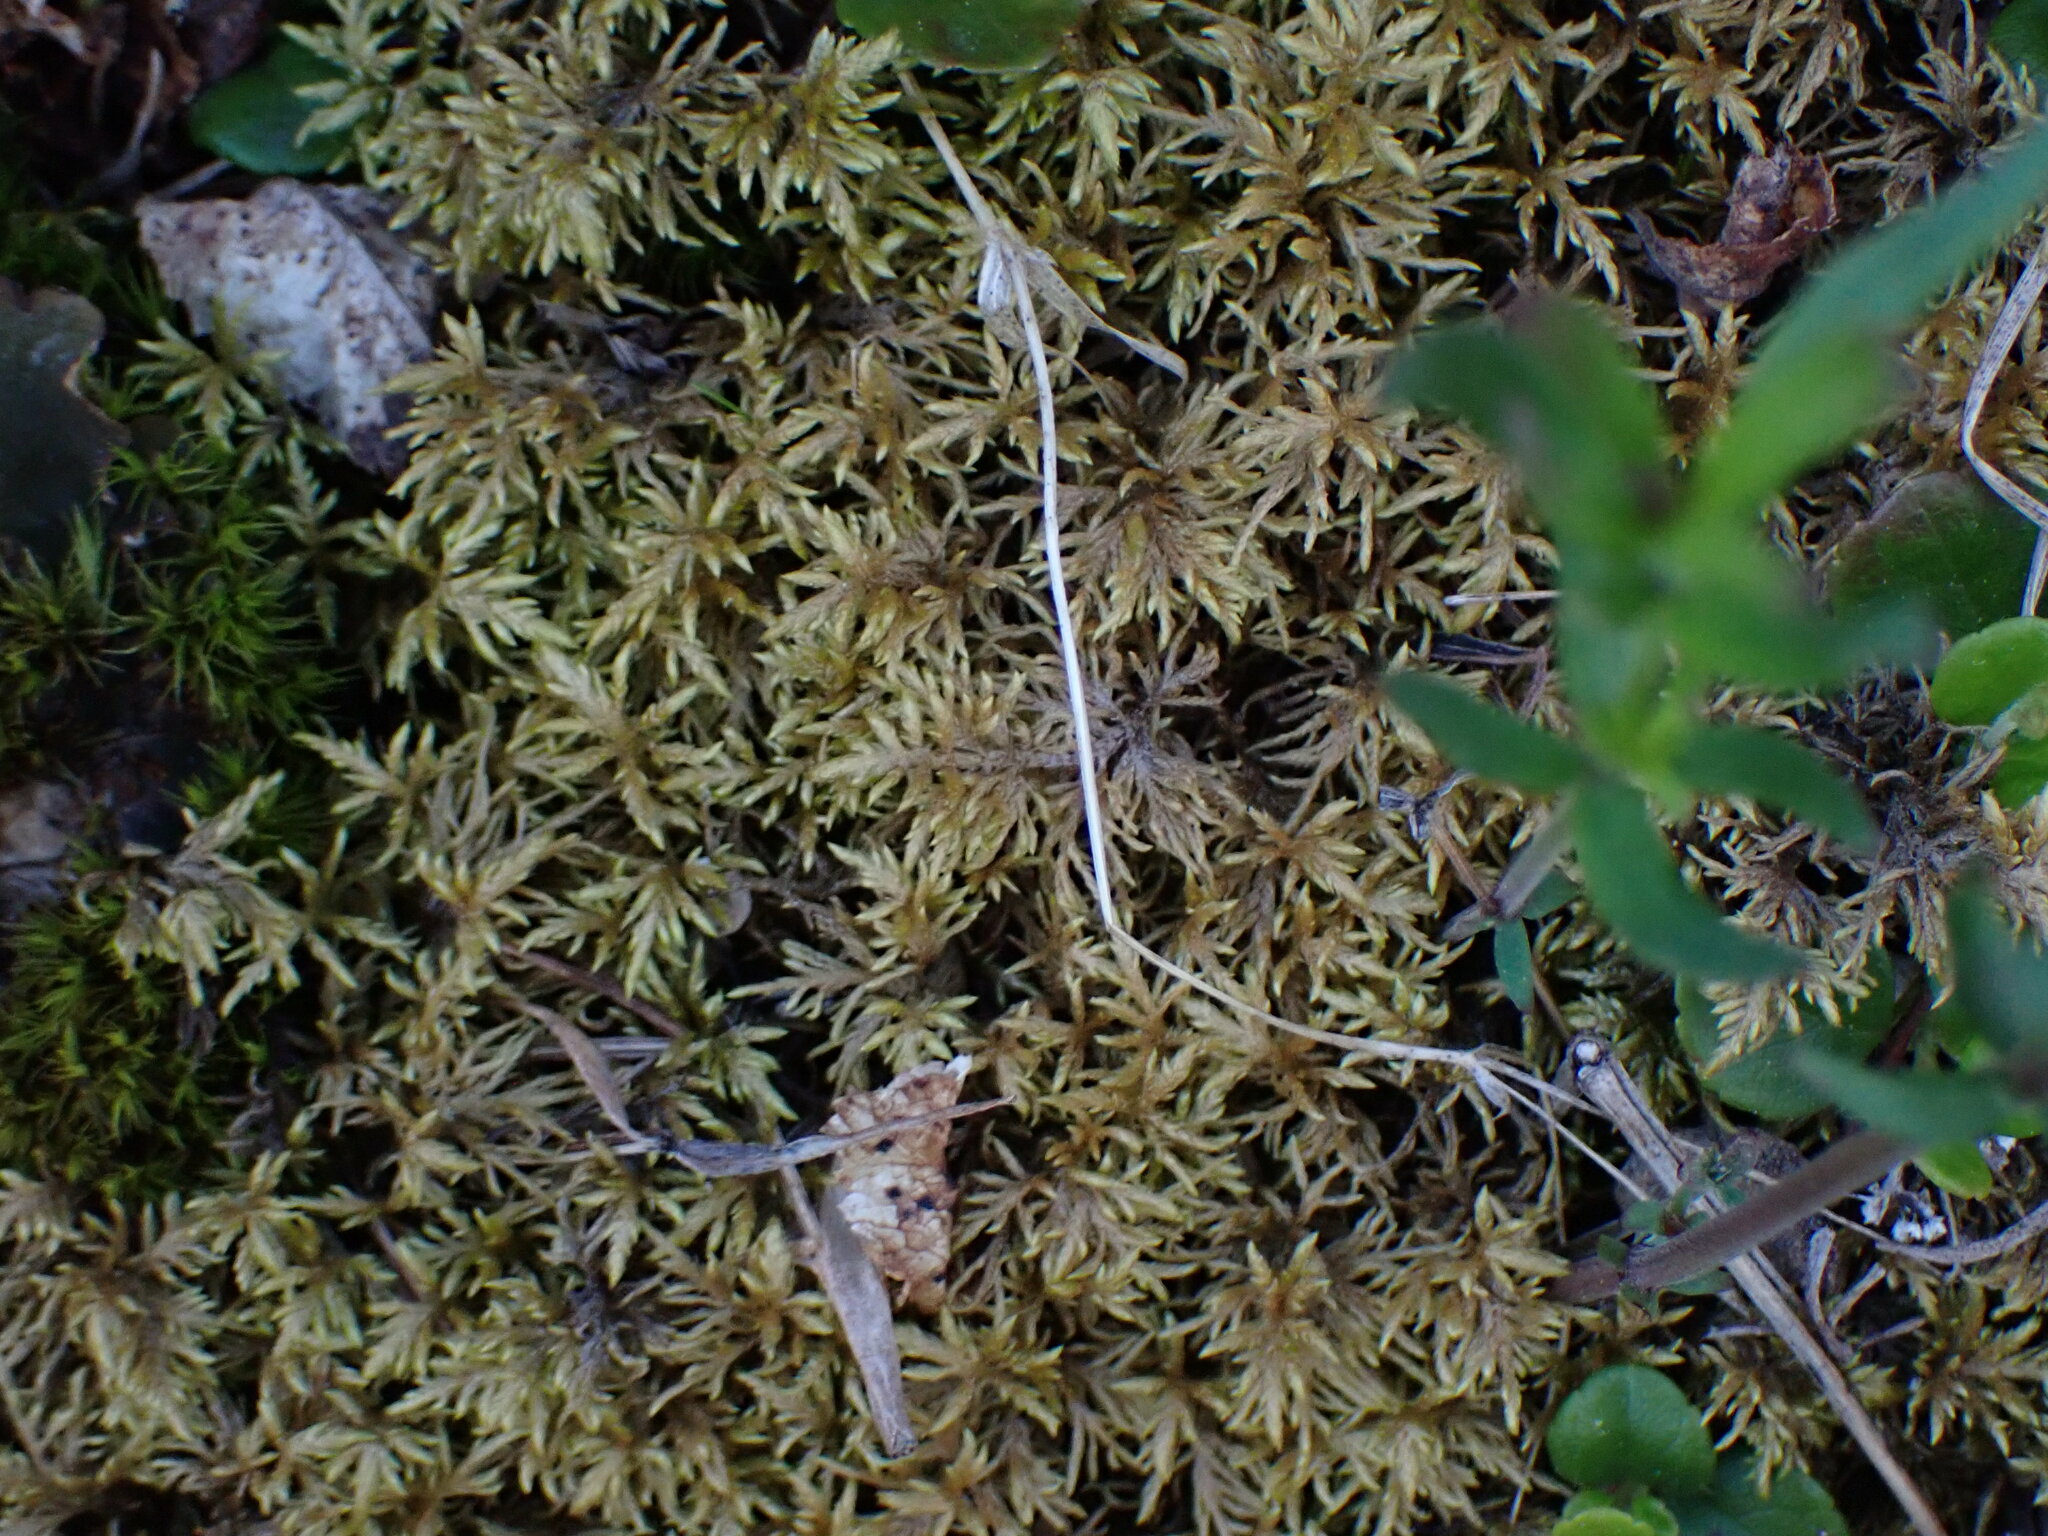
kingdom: Plantae
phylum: Bryophyta
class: Bryopsida
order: Hypnales
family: Hylocomiaceae
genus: Hylocomium
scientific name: Hylocomium splendens
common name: Stairstep moss
